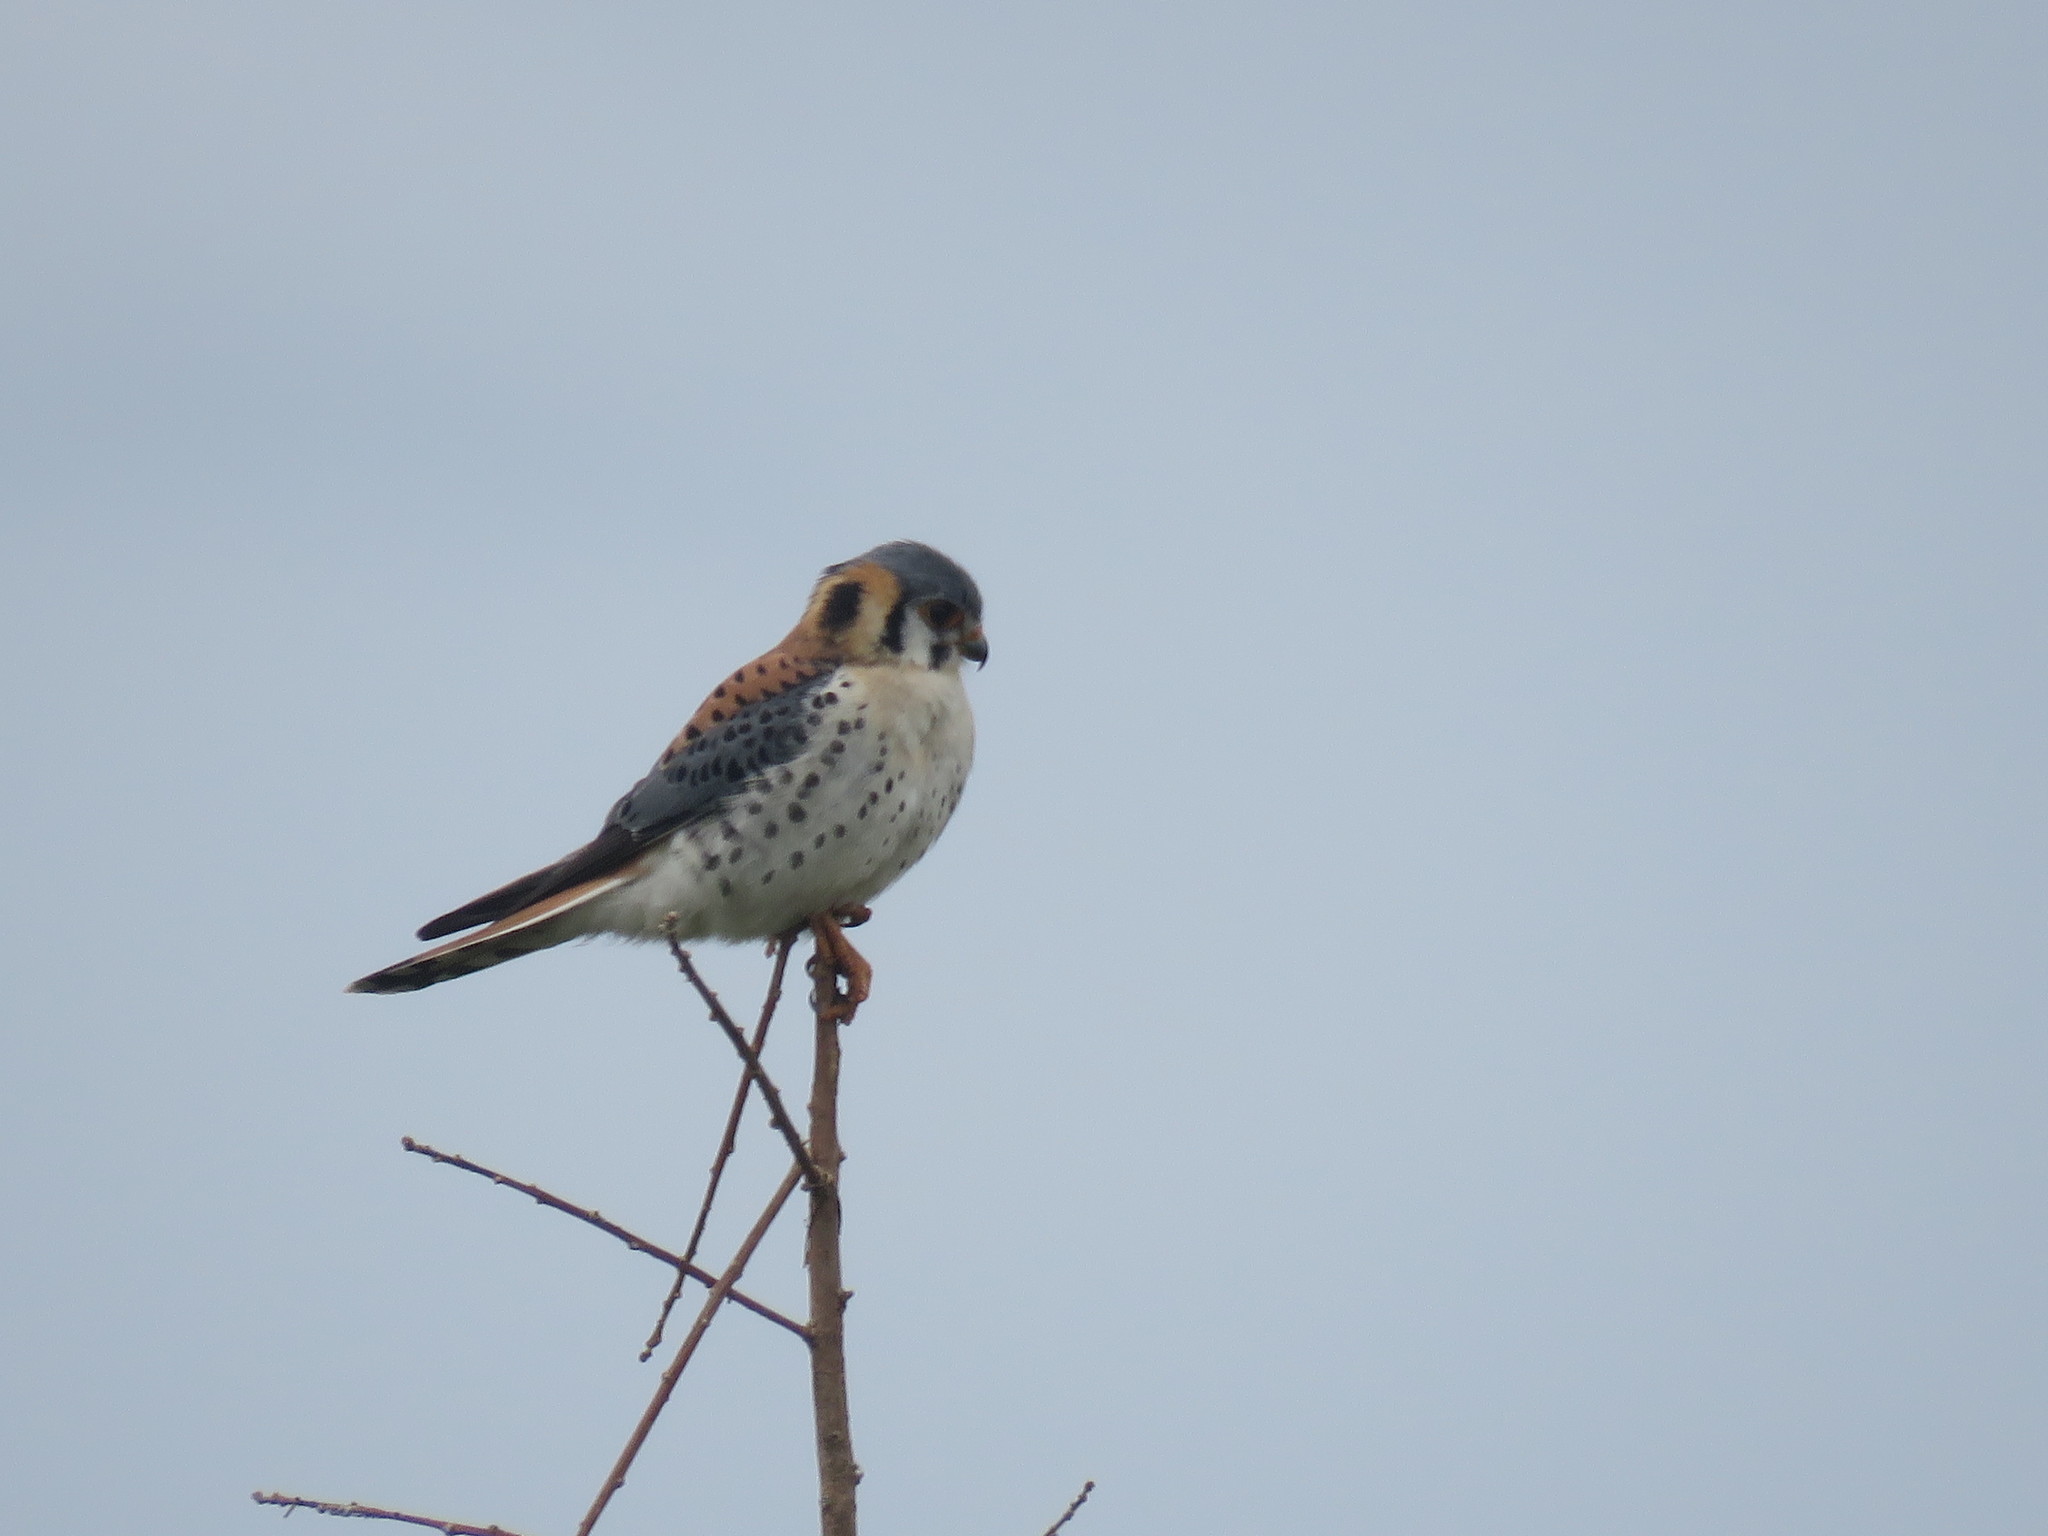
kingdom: Animalia
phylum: Chordata
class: Aves
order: Falconiformes
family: Falconidae
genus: Falco
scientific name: Falco sparverius
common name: American kestrel
